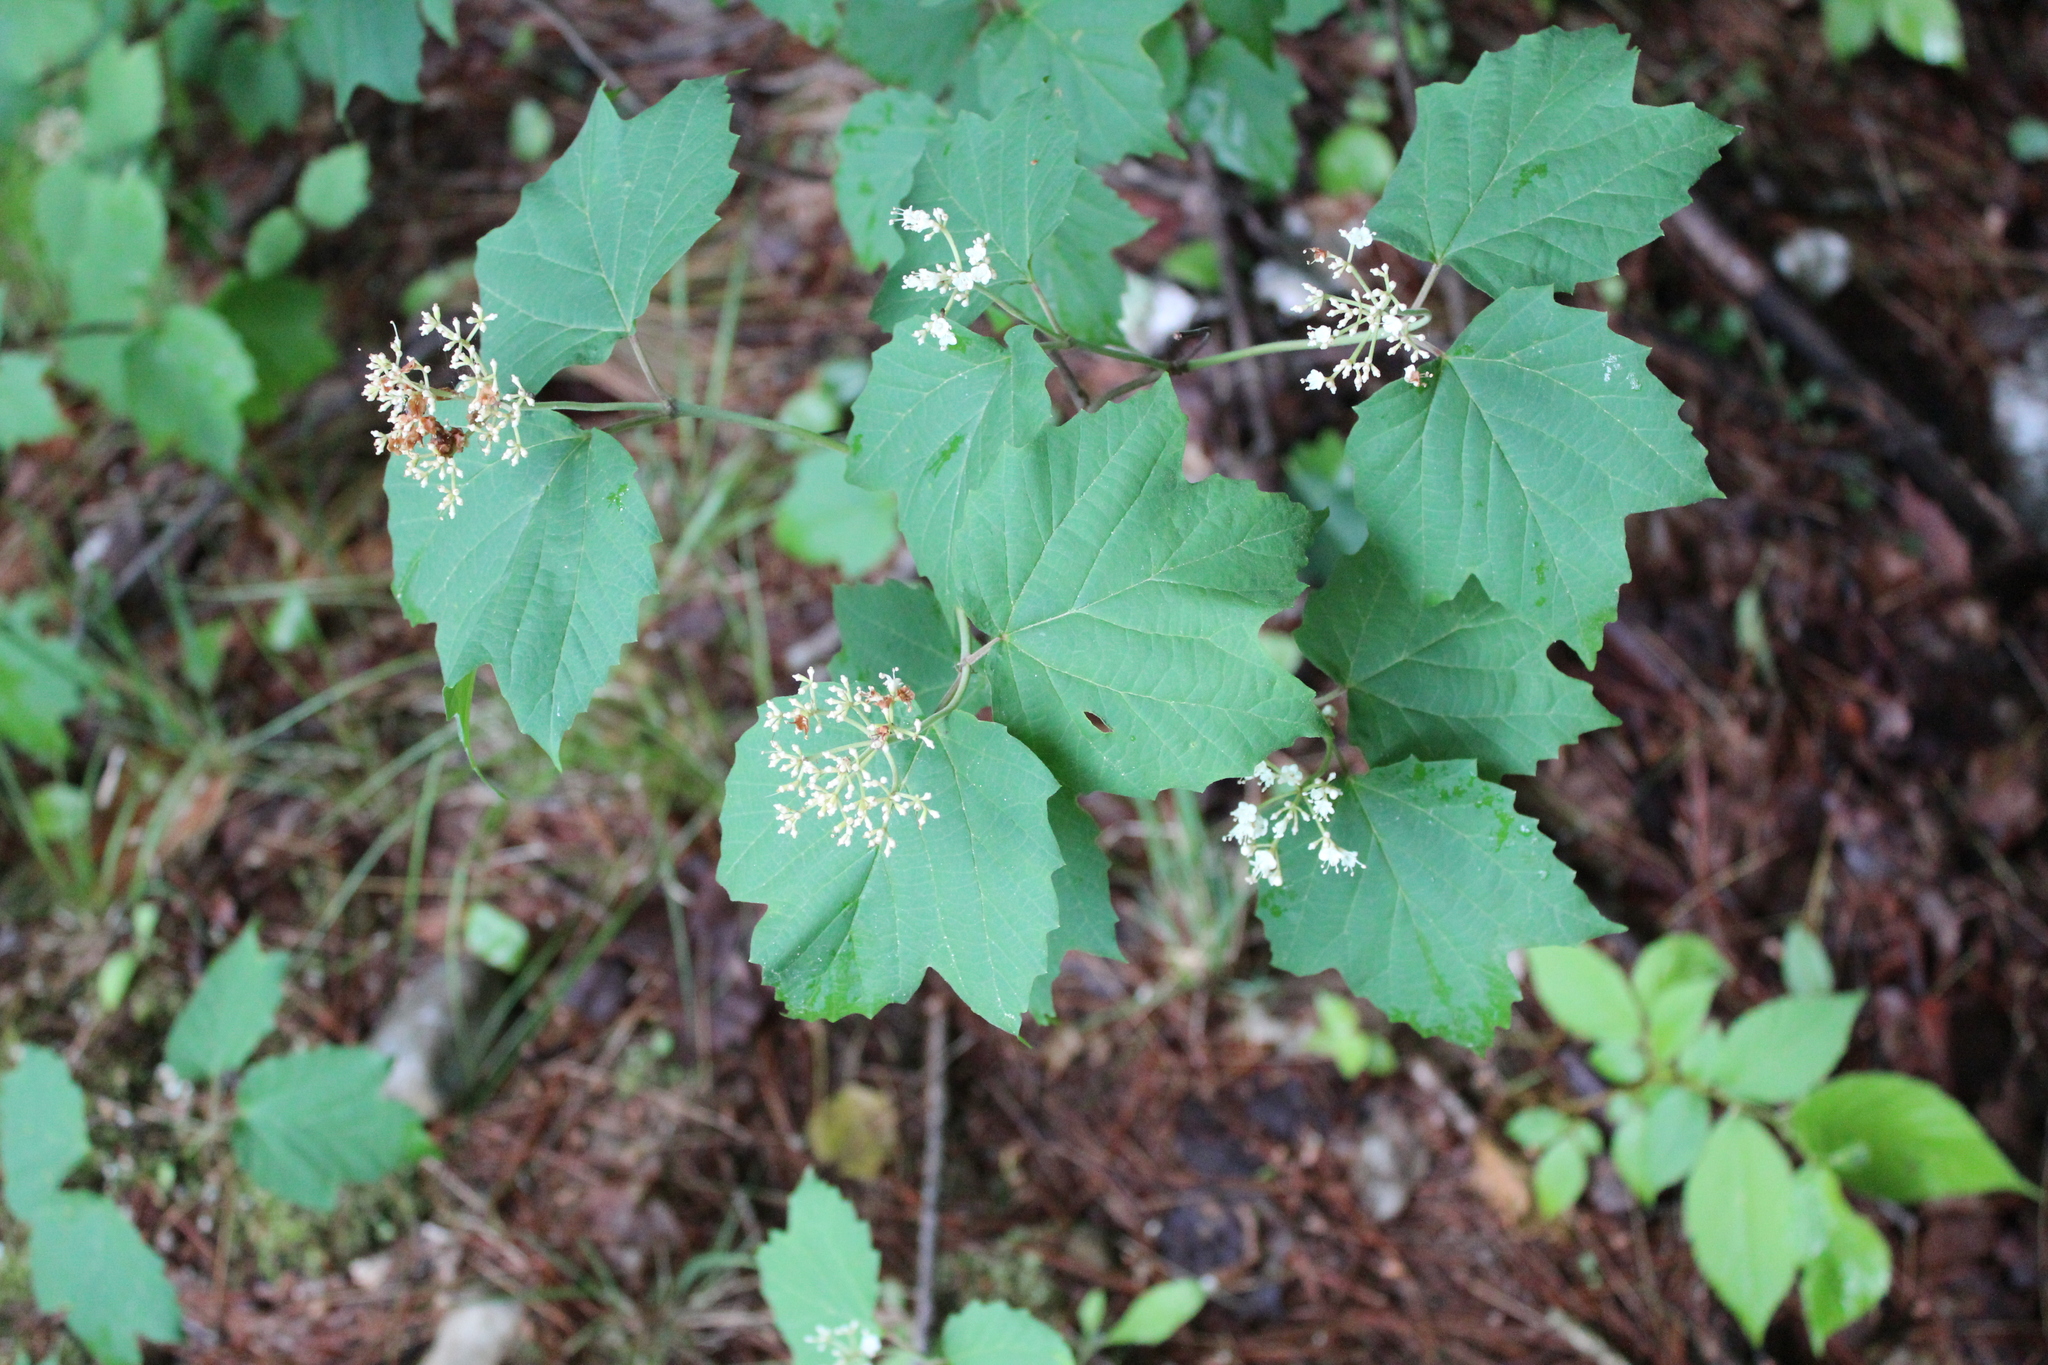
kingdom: Plantae
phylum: Tracheophyta
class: Magnoliopsida
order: Dipsacales
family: Viburnaceae
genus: Viburnum
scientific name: Viburnum acerifolium
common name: Dockmackie
